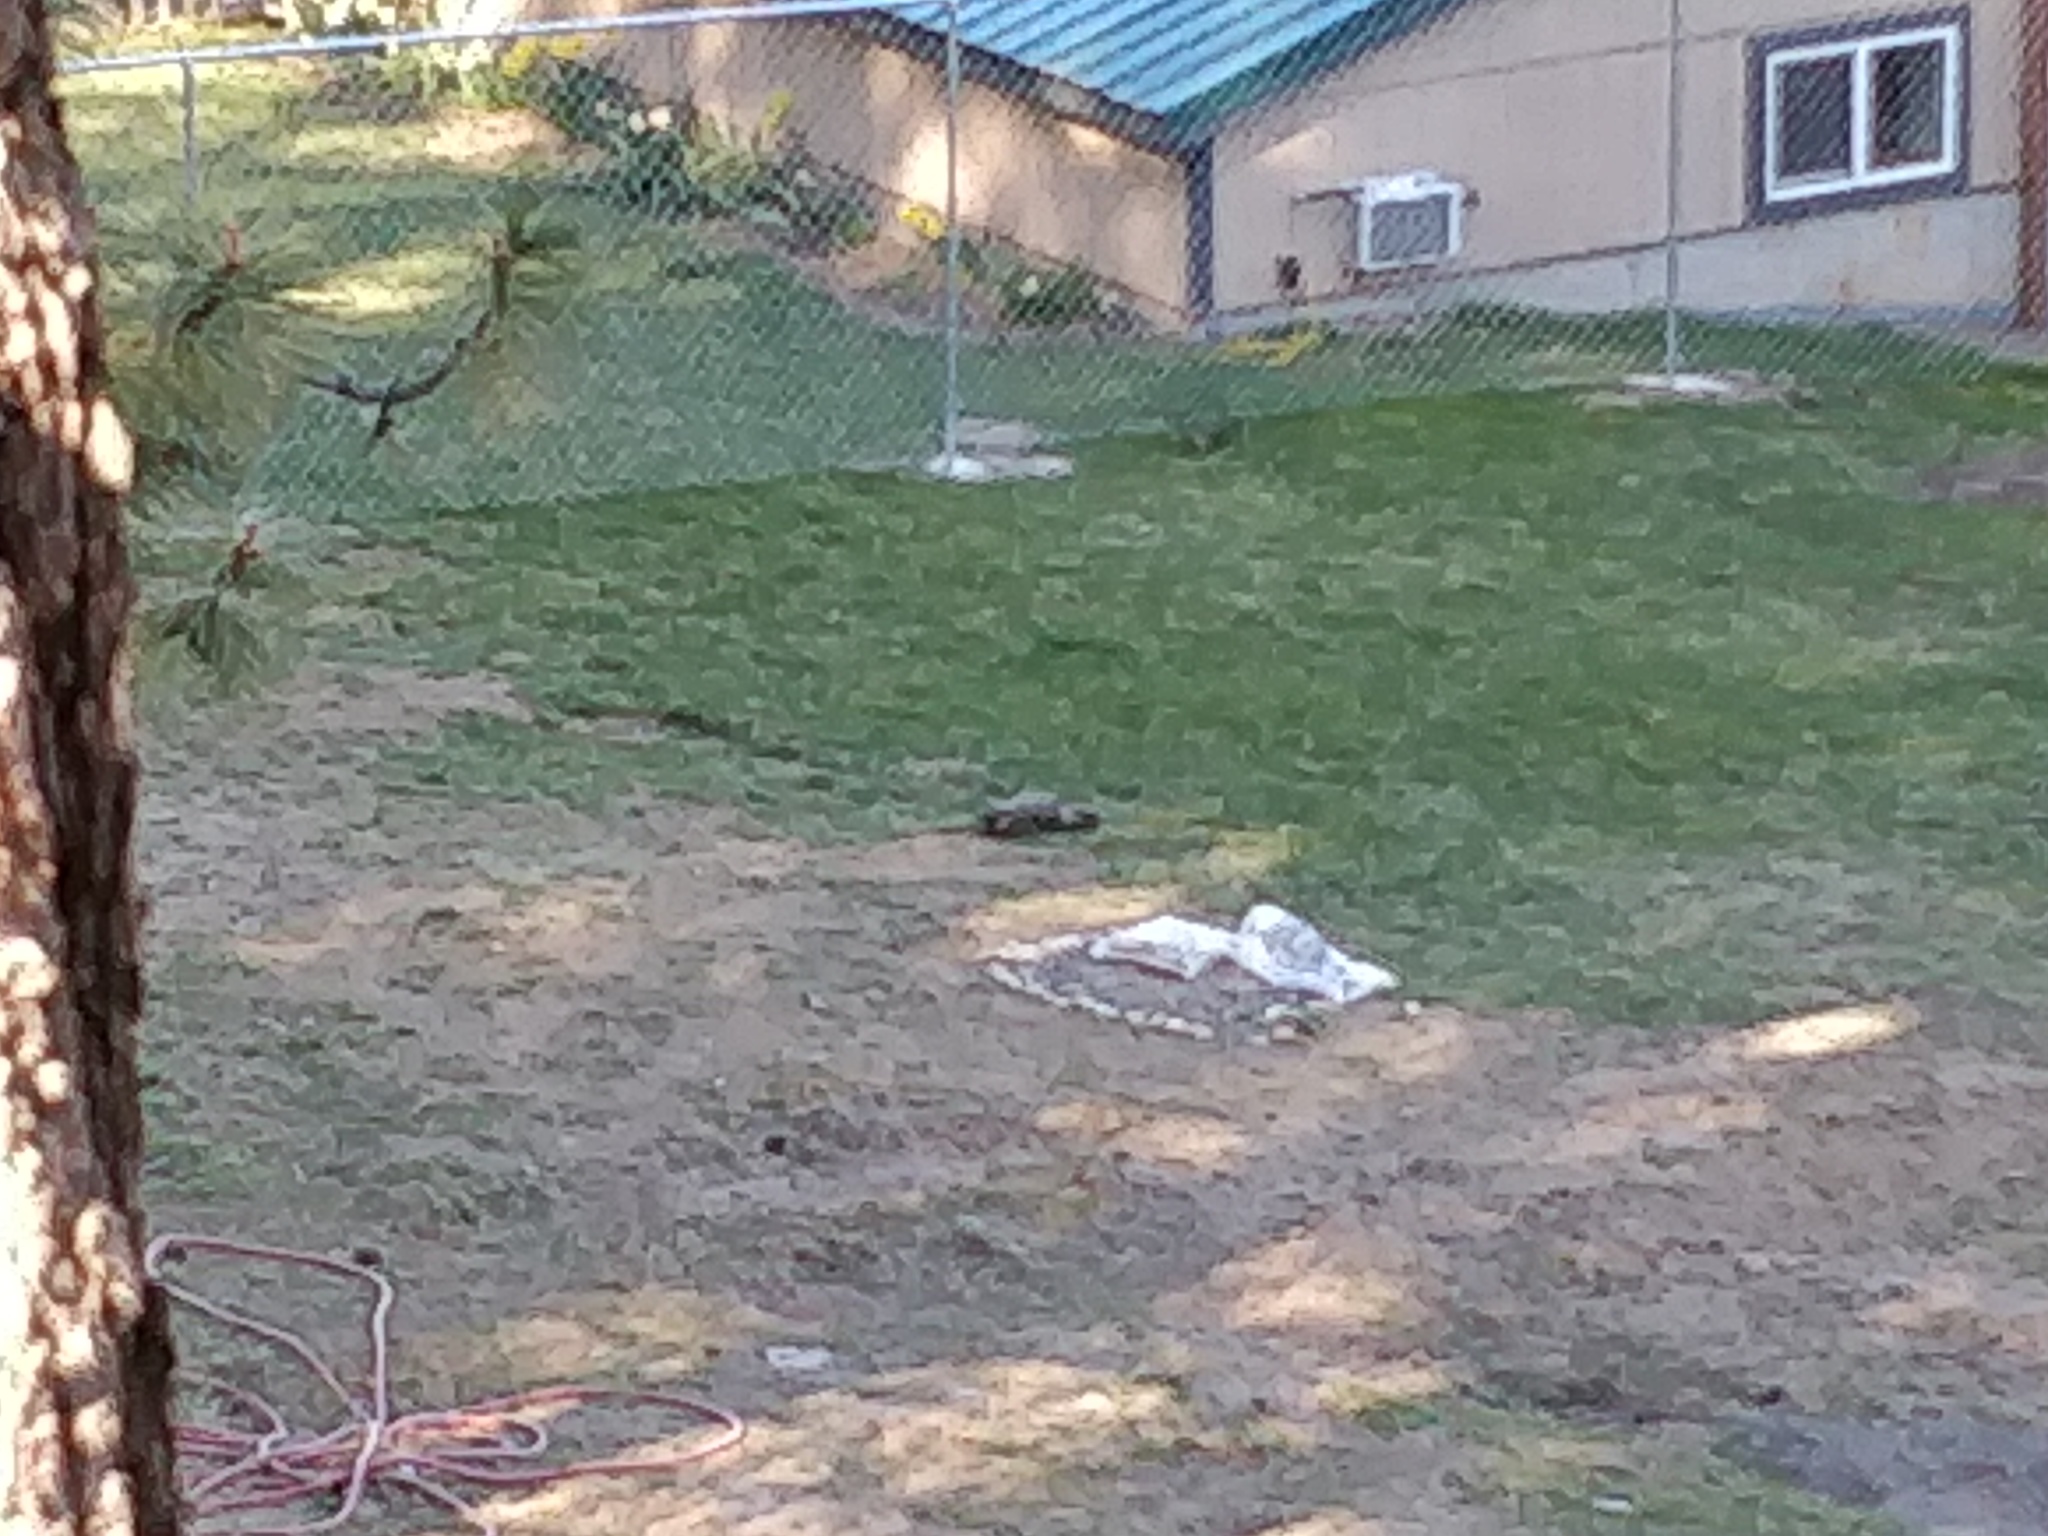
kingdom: Animalia
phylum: Chordata
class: Mammalia
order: Rodentia
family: Sciuridae
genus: Marmota
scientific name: Marmota flaviventris
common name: Yellow-bellied marmot
